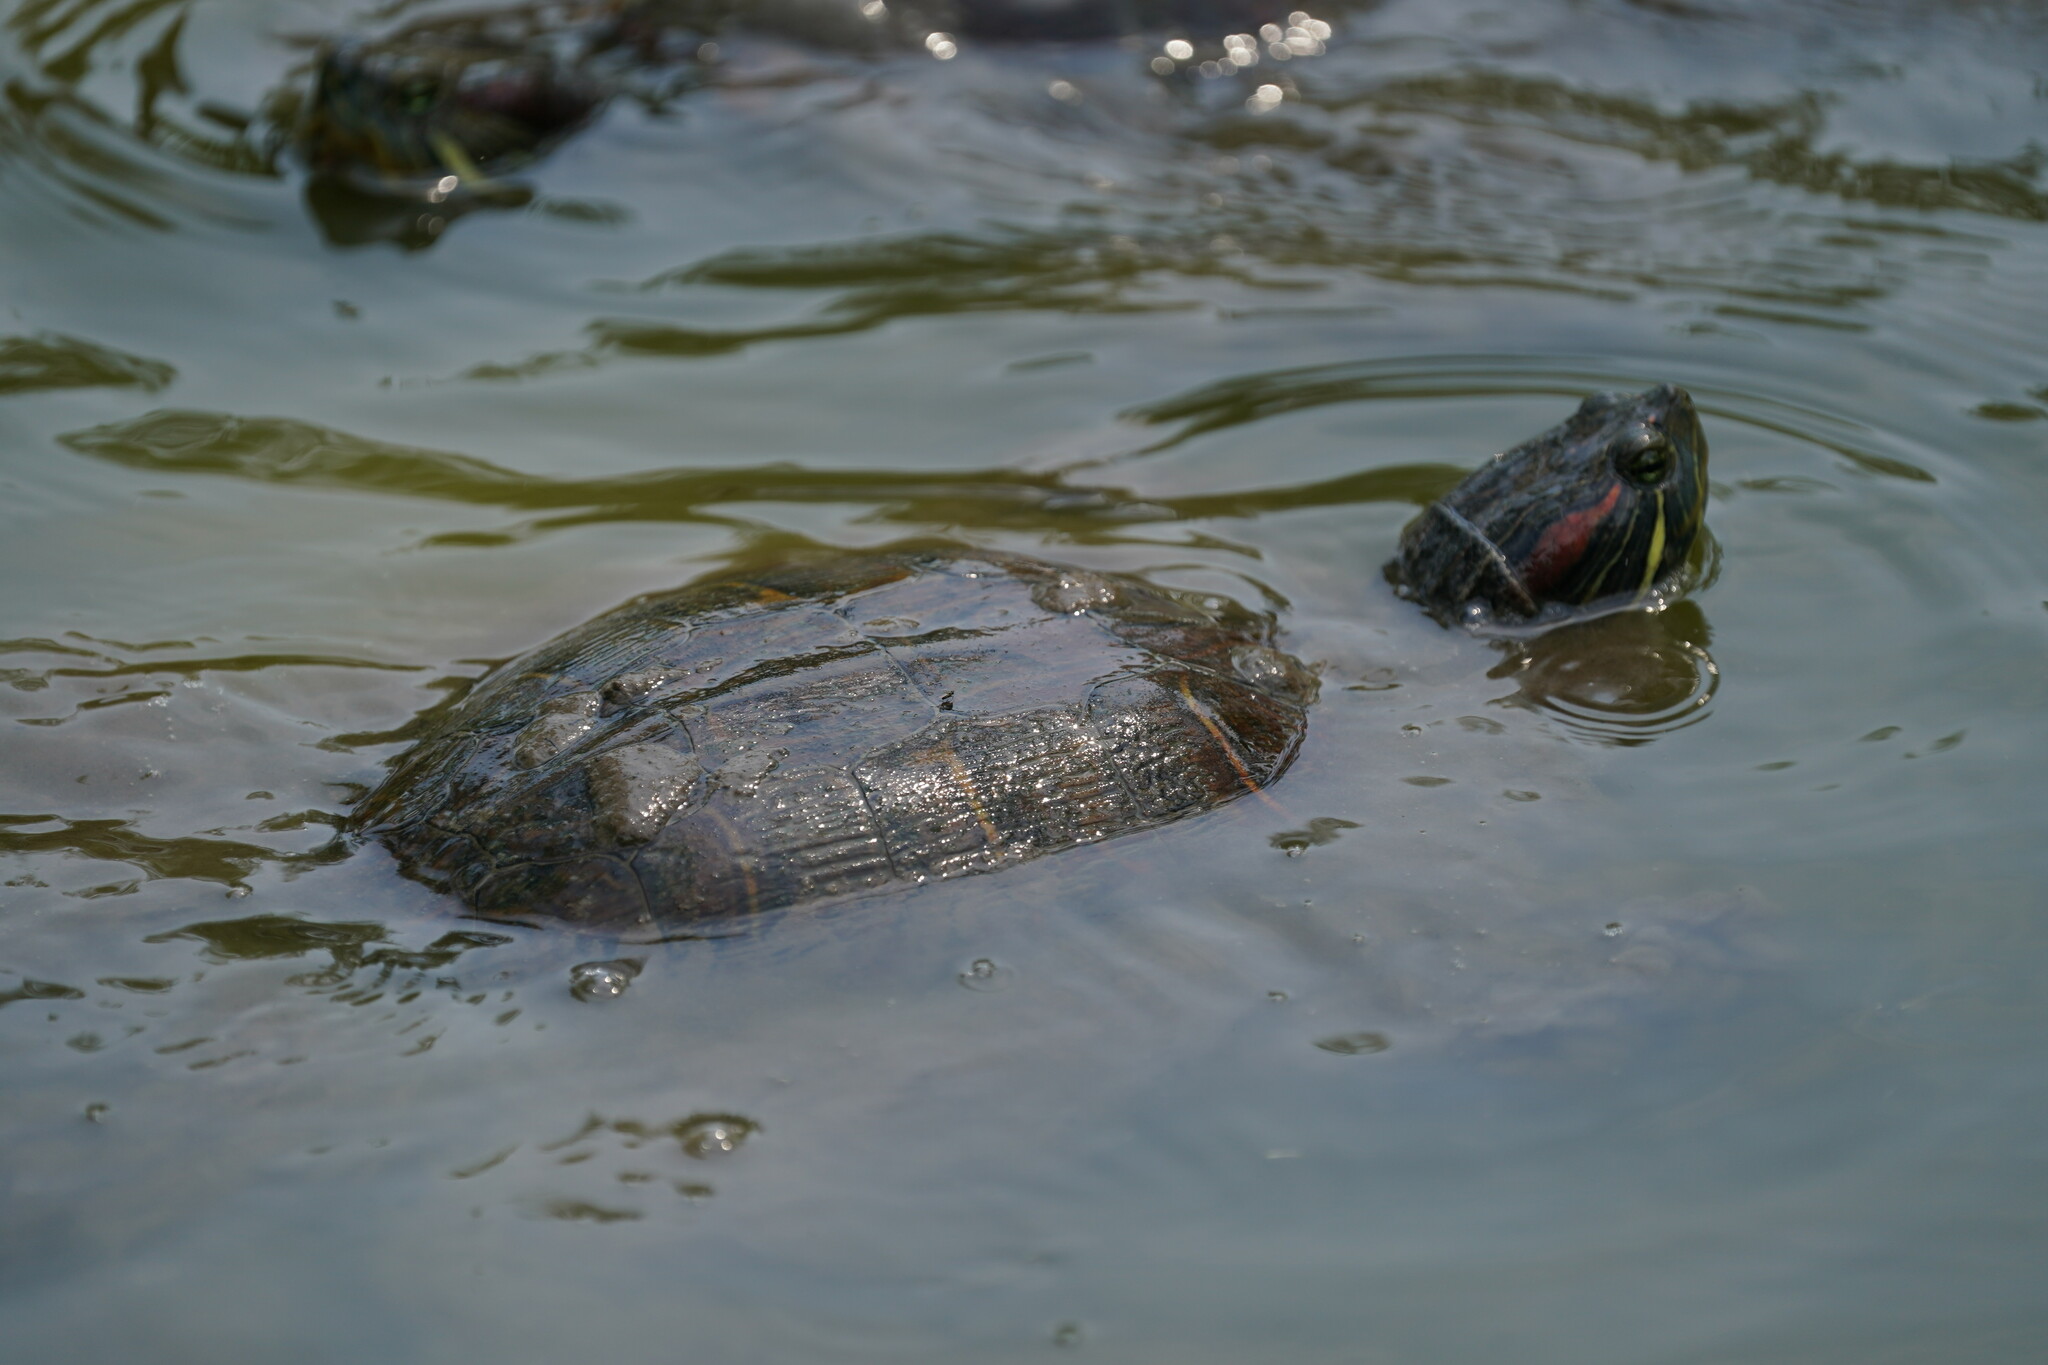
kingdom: Animalia
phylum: Chordata
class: Testudines
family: Emydidae
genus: Trachemys
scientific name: Trachemys scripta
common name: Slider
